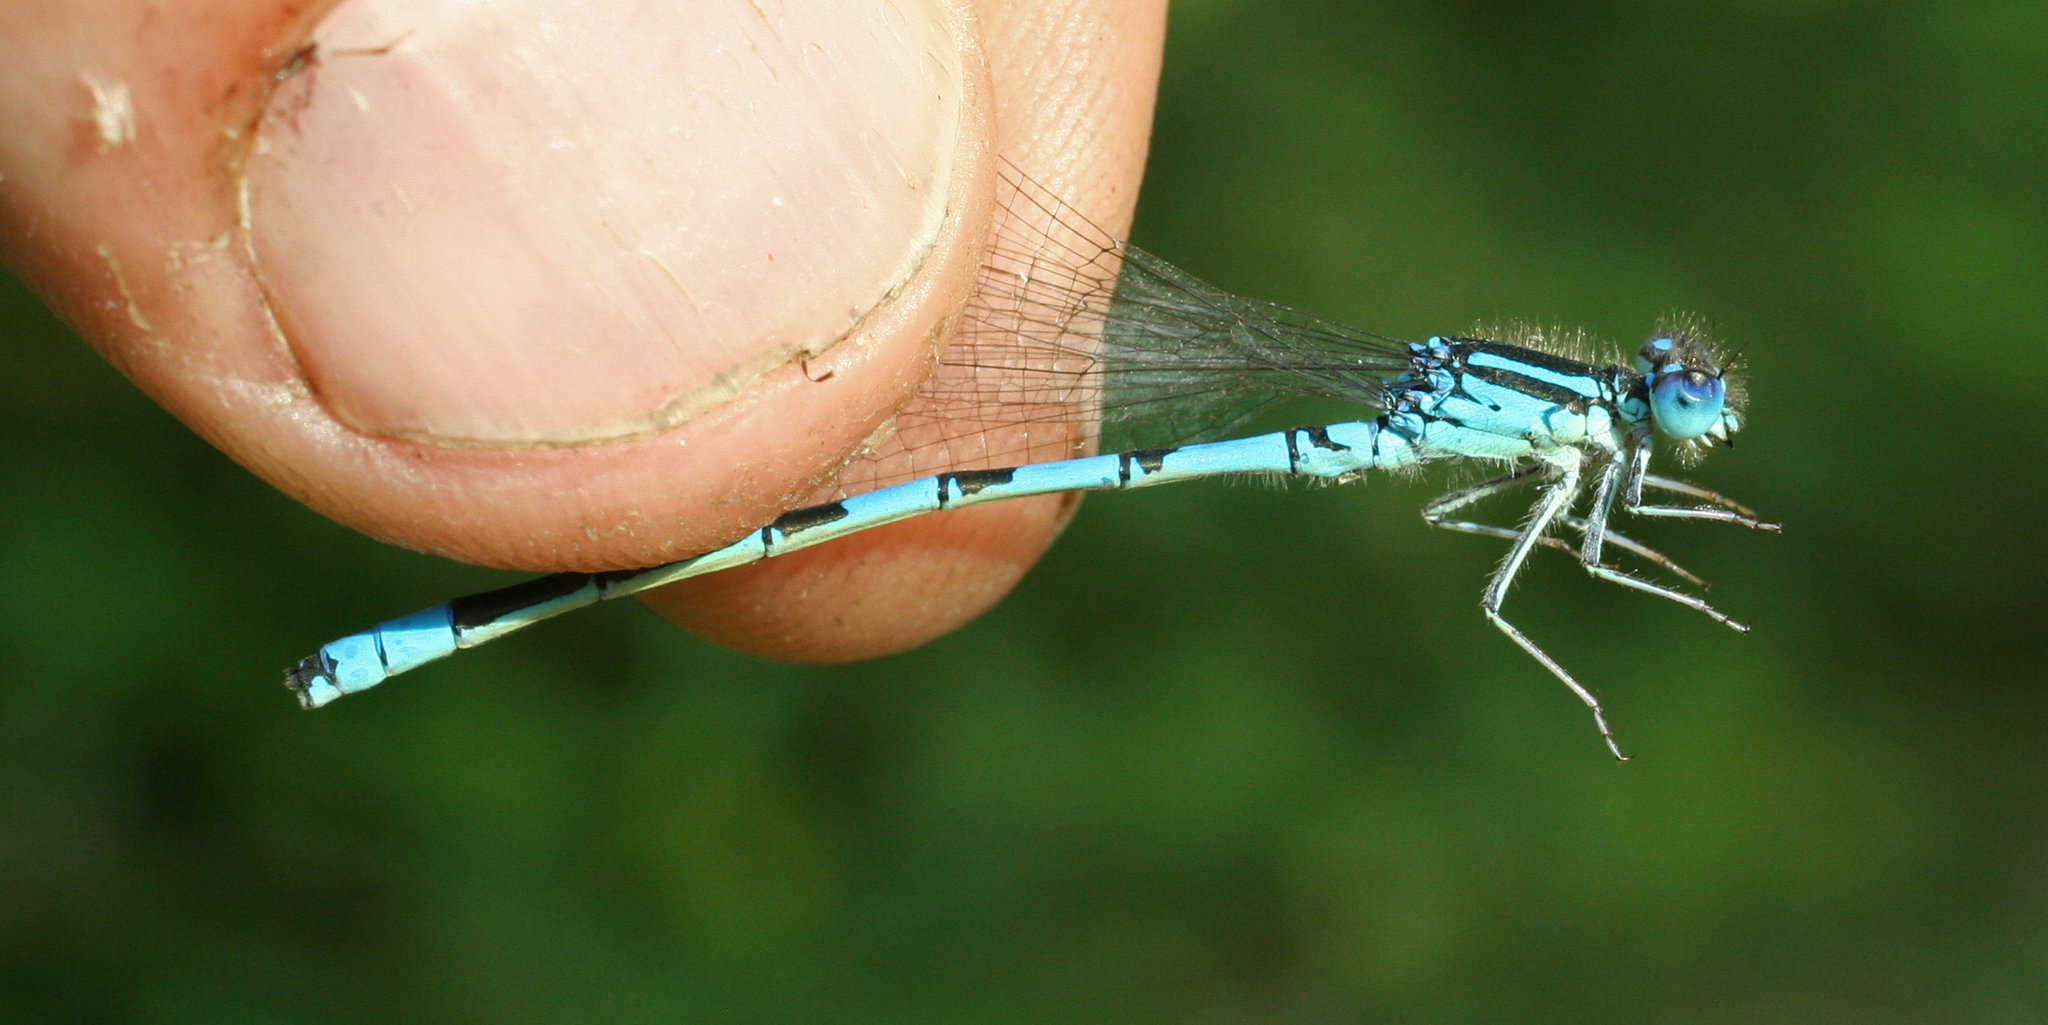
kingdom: Animalia
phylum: Arthropoda
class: Insecta
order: Odonata
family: Coenagrionidae
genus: Coenagrion
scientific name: Coenagrion scitulum
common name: Dainty bluet
